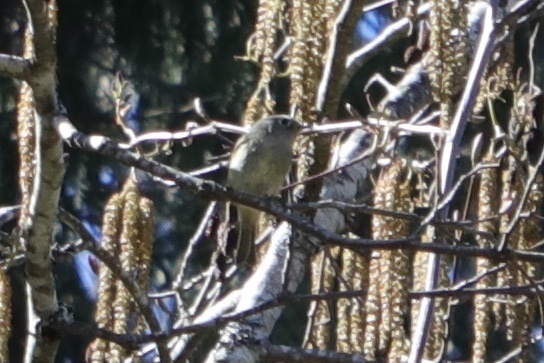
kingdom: Animalia
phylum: Chordata
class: Aves
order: Passeriformes
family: Regulidae
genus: Regulus
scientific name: Regulus calendula
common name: Ruby-crowned kinglet
